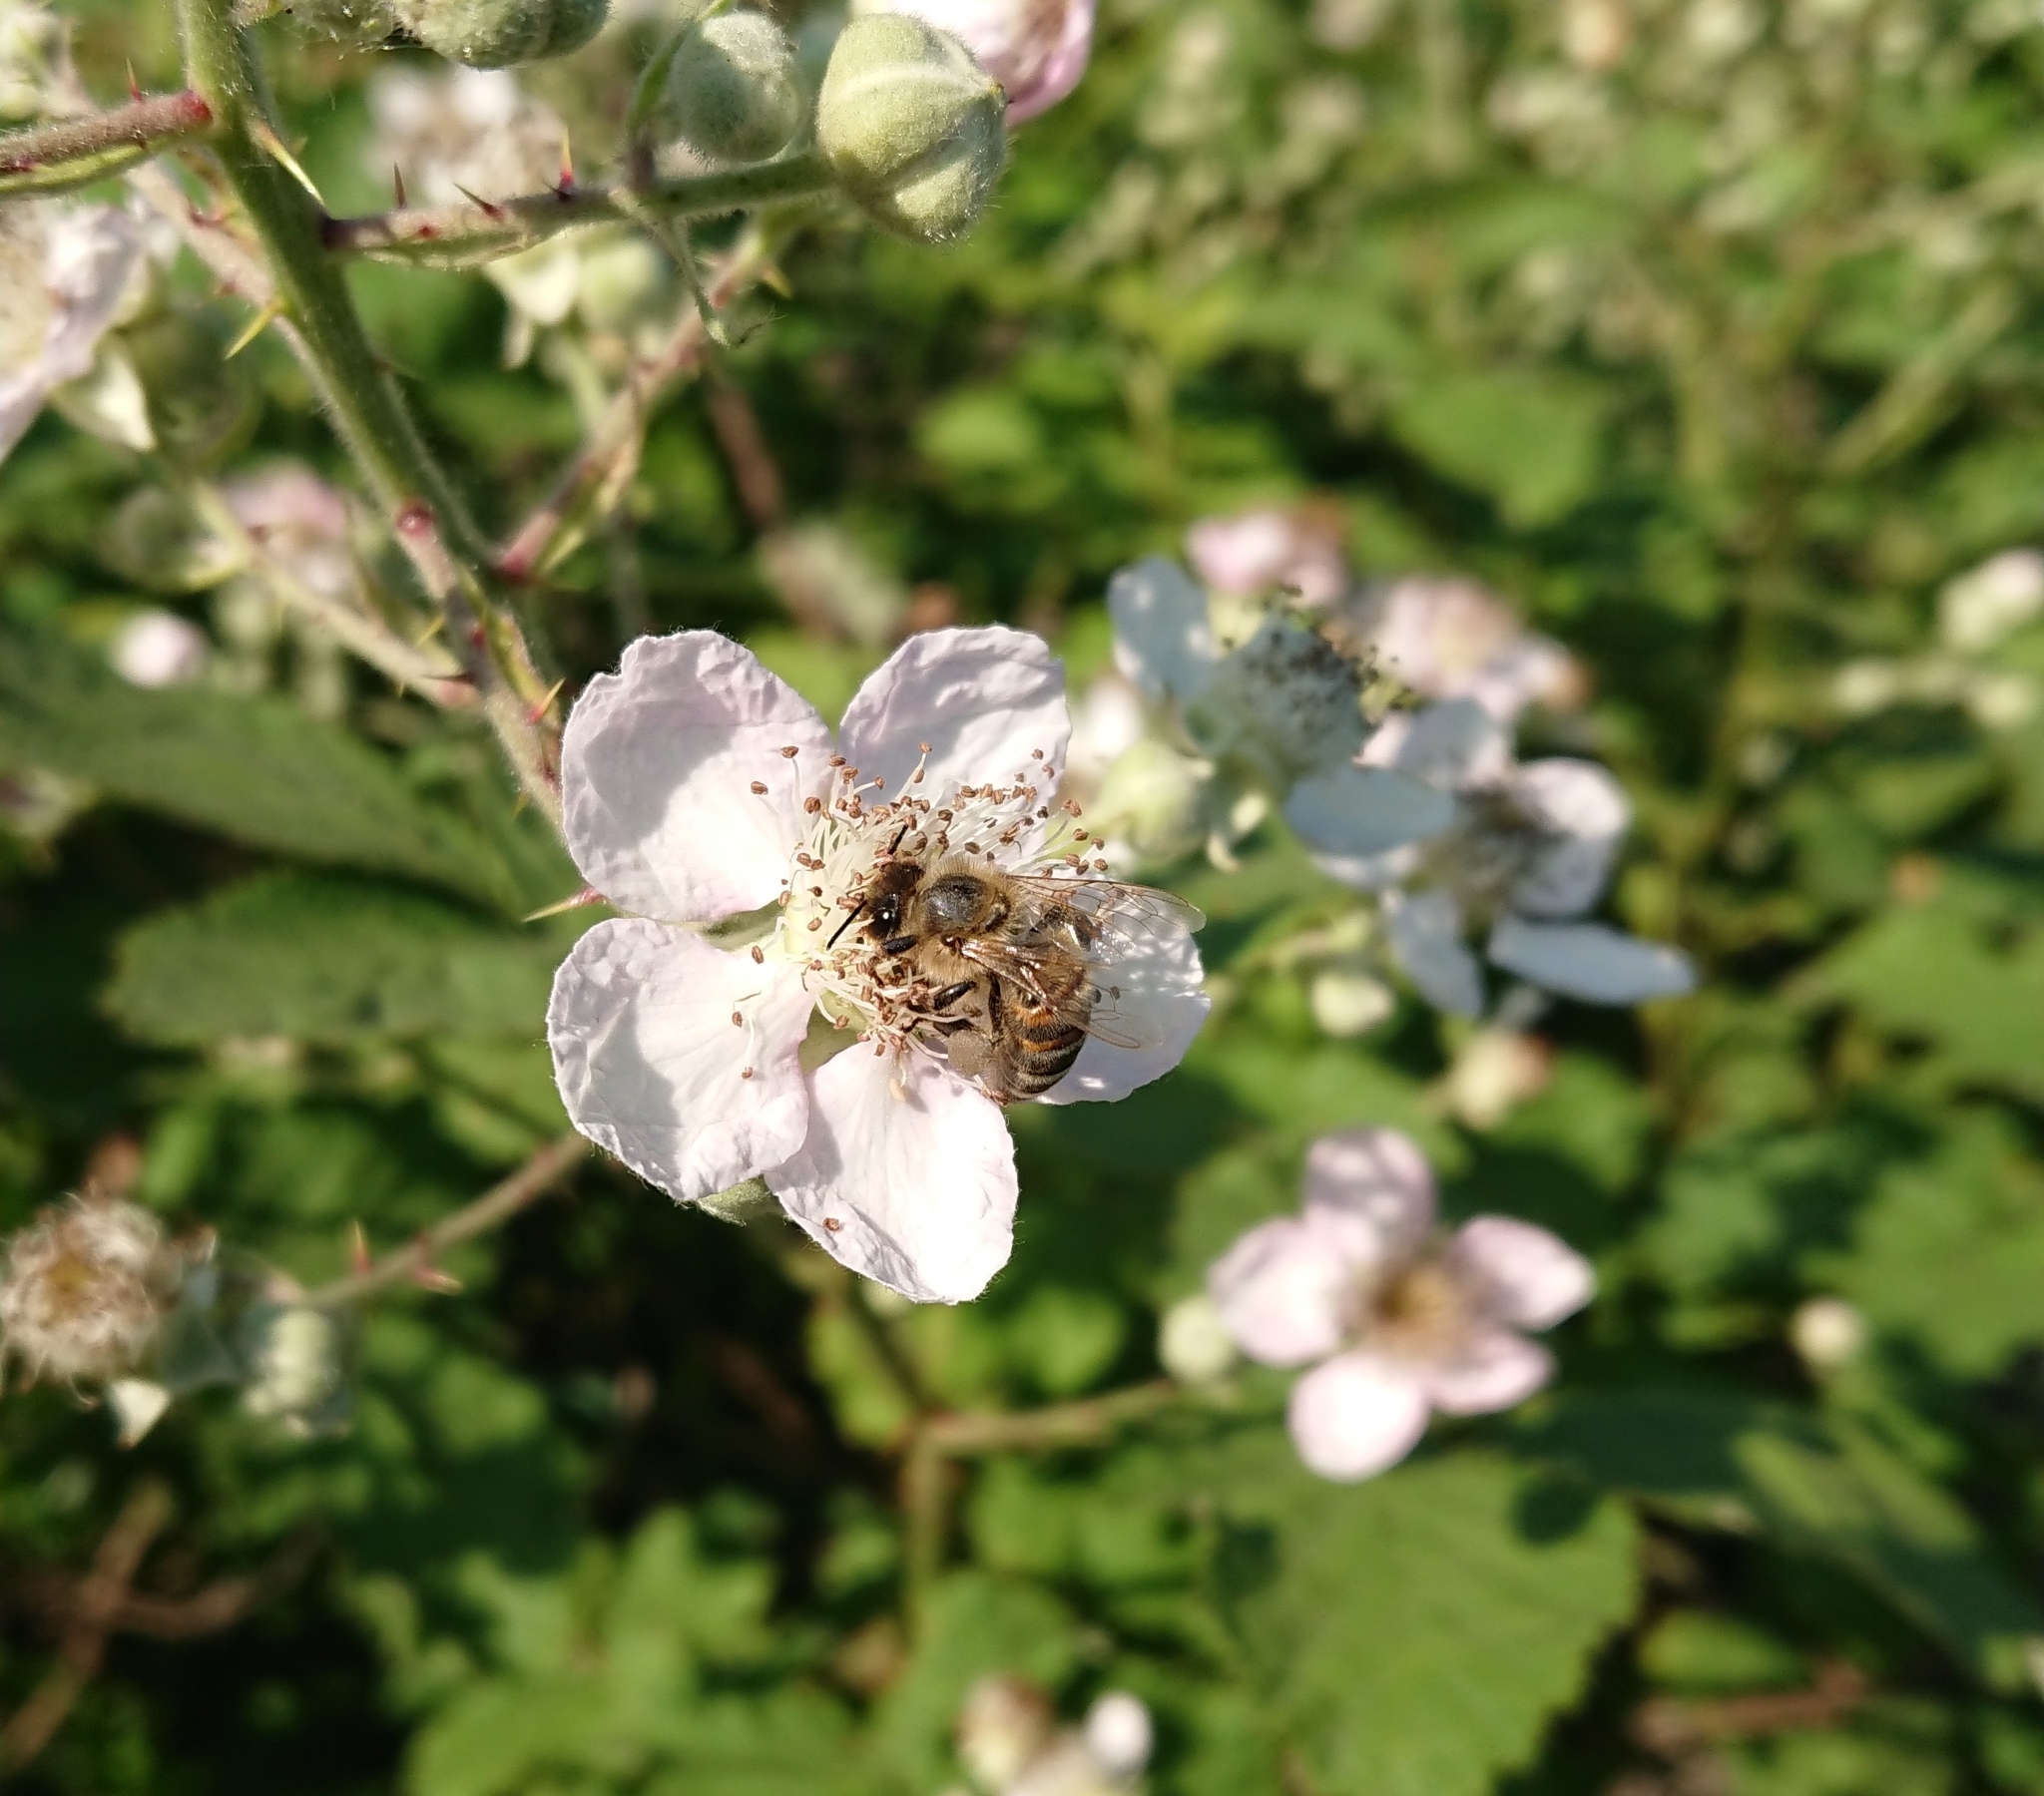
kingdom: Animalia
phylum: Arthropoda
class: Insecta
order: Hymenoptera
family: Apidae
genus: Apis
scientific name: Apis mellifera
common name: Honey bee
